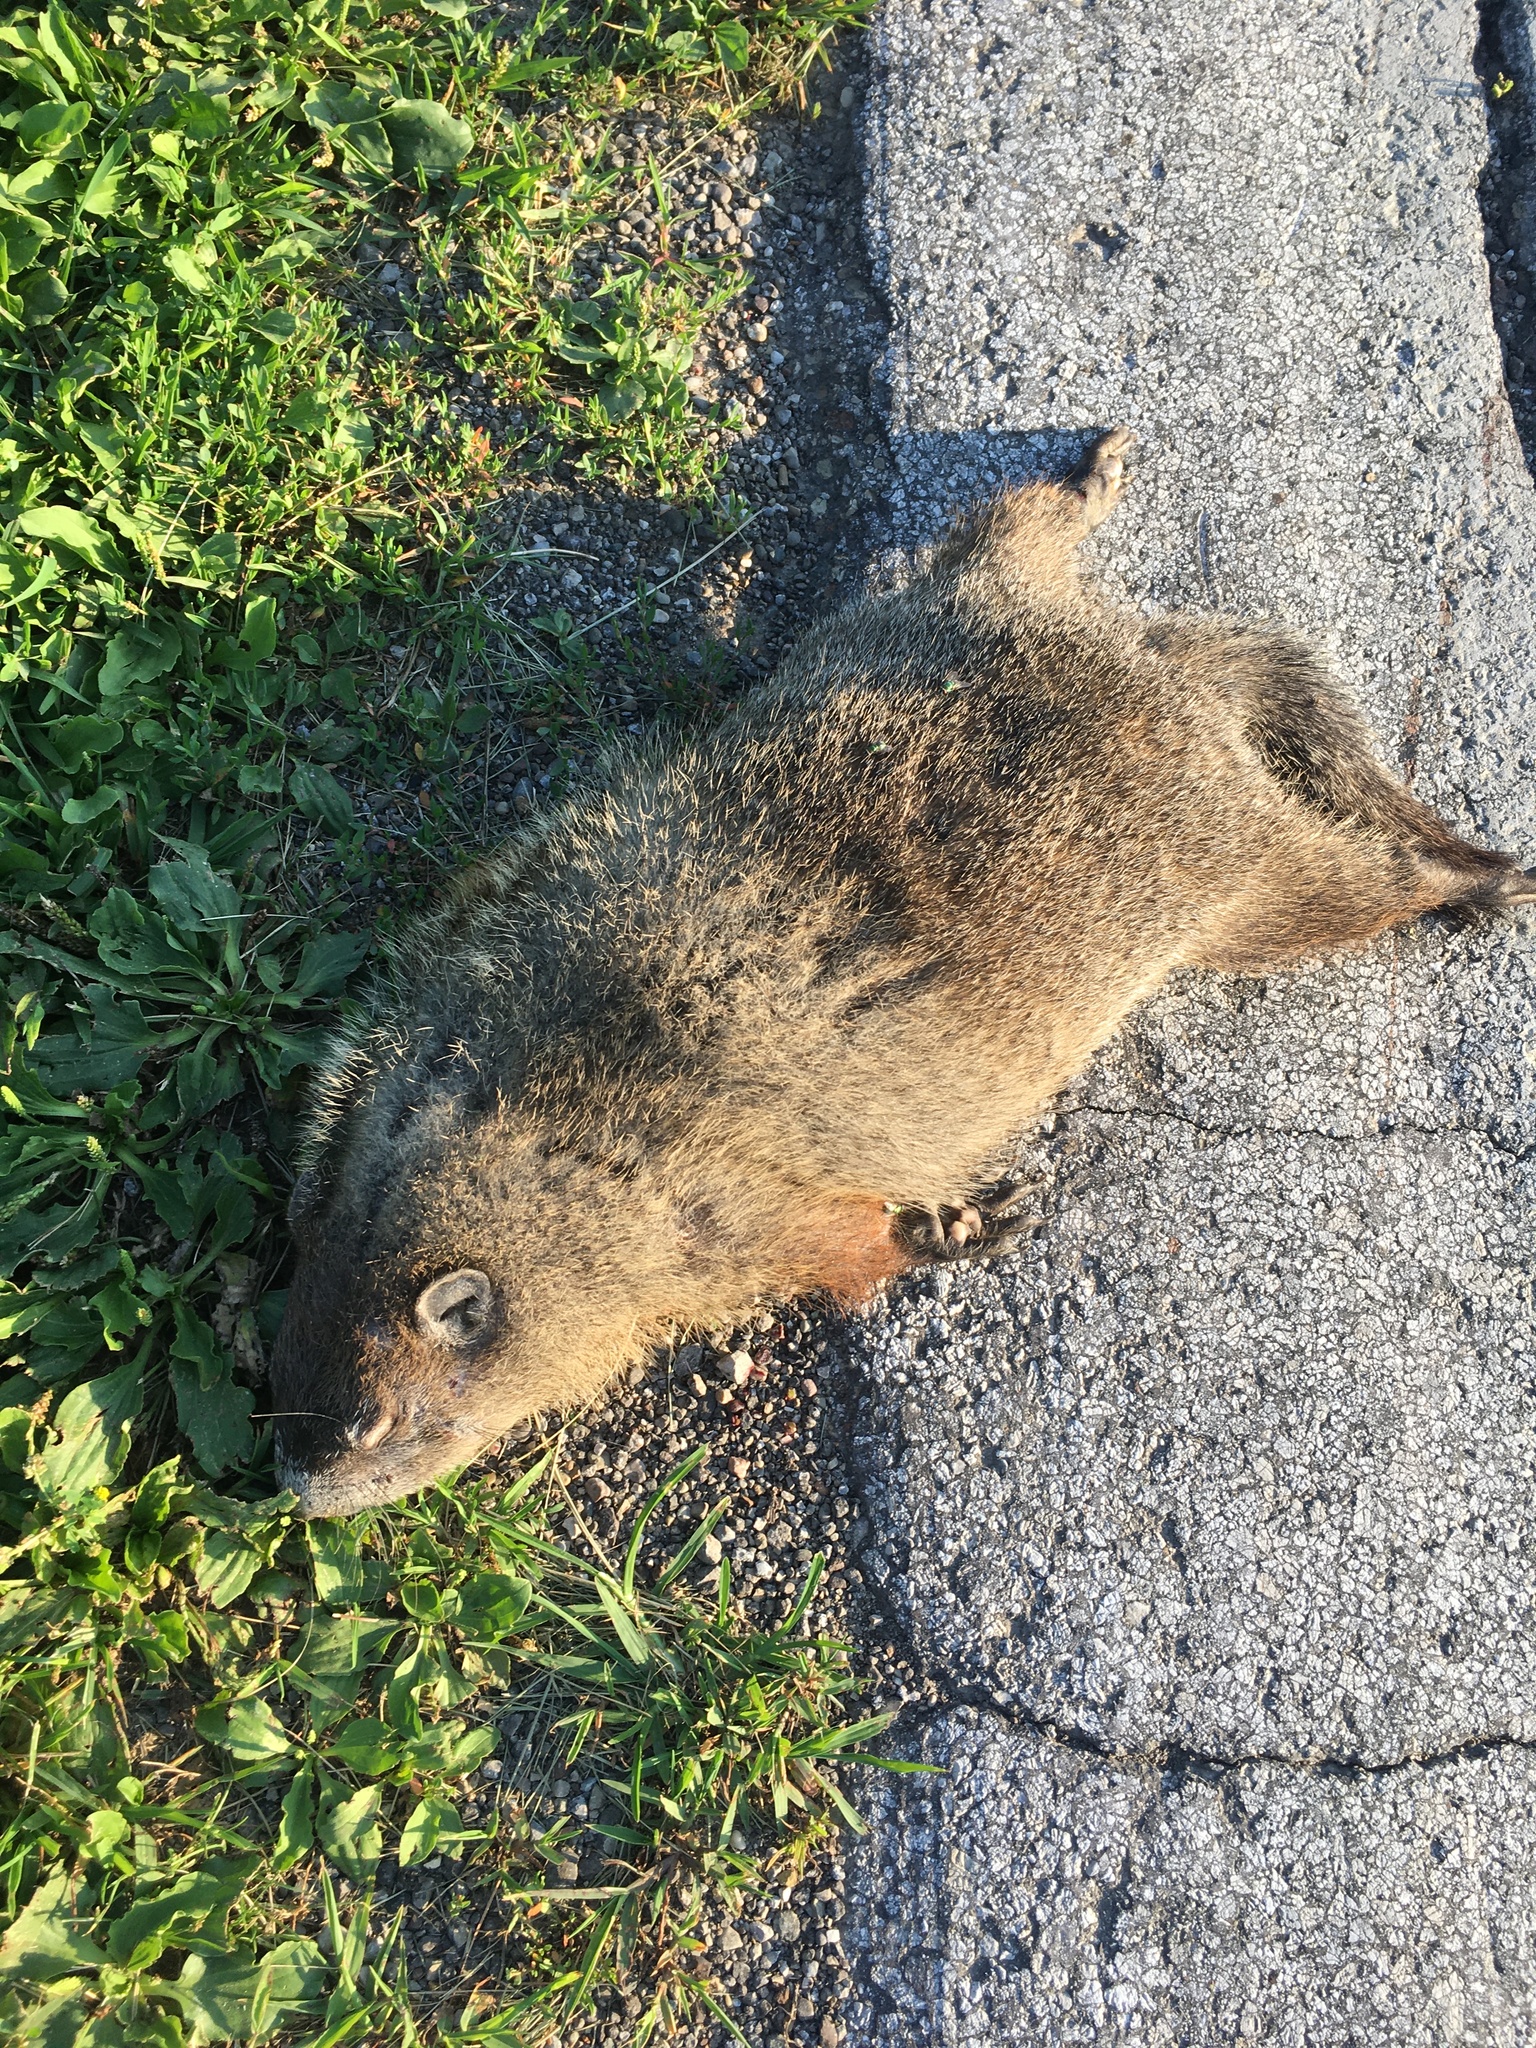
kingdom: Animalia
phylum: Chordata
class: Mammalia
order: Rodentia
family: Sciuridae
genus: Marmota
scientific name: Marmota monax
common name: Groundhog
